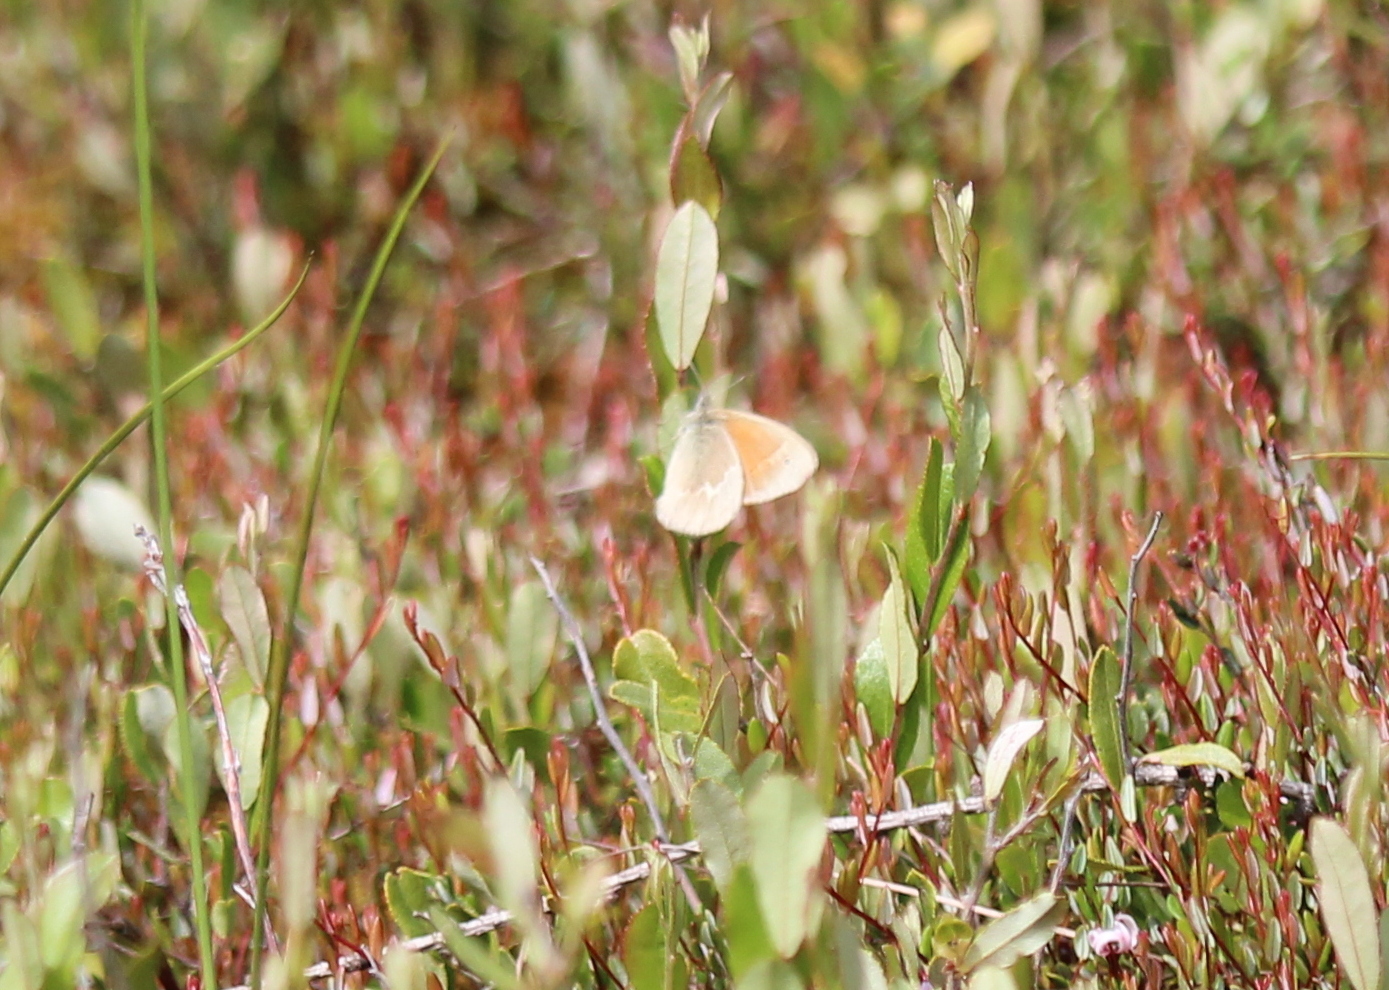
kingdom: Animalia
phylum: Arthropoda
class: Insecta
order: Lepidoptera
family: Nymphalidae
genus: Coenonympha
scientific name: Coenonympha california
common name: Common ringlet
